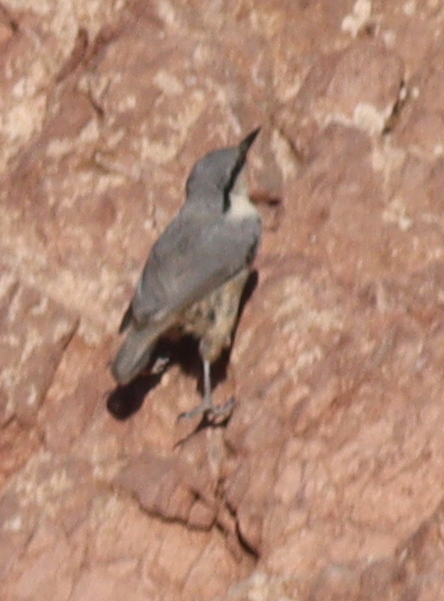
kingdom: Animalia
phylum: Chordata
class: Aves
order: Passeriformes
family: Sittidae
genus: Sitta
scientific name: Sitta neumayer
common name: Western rock nuthatch
